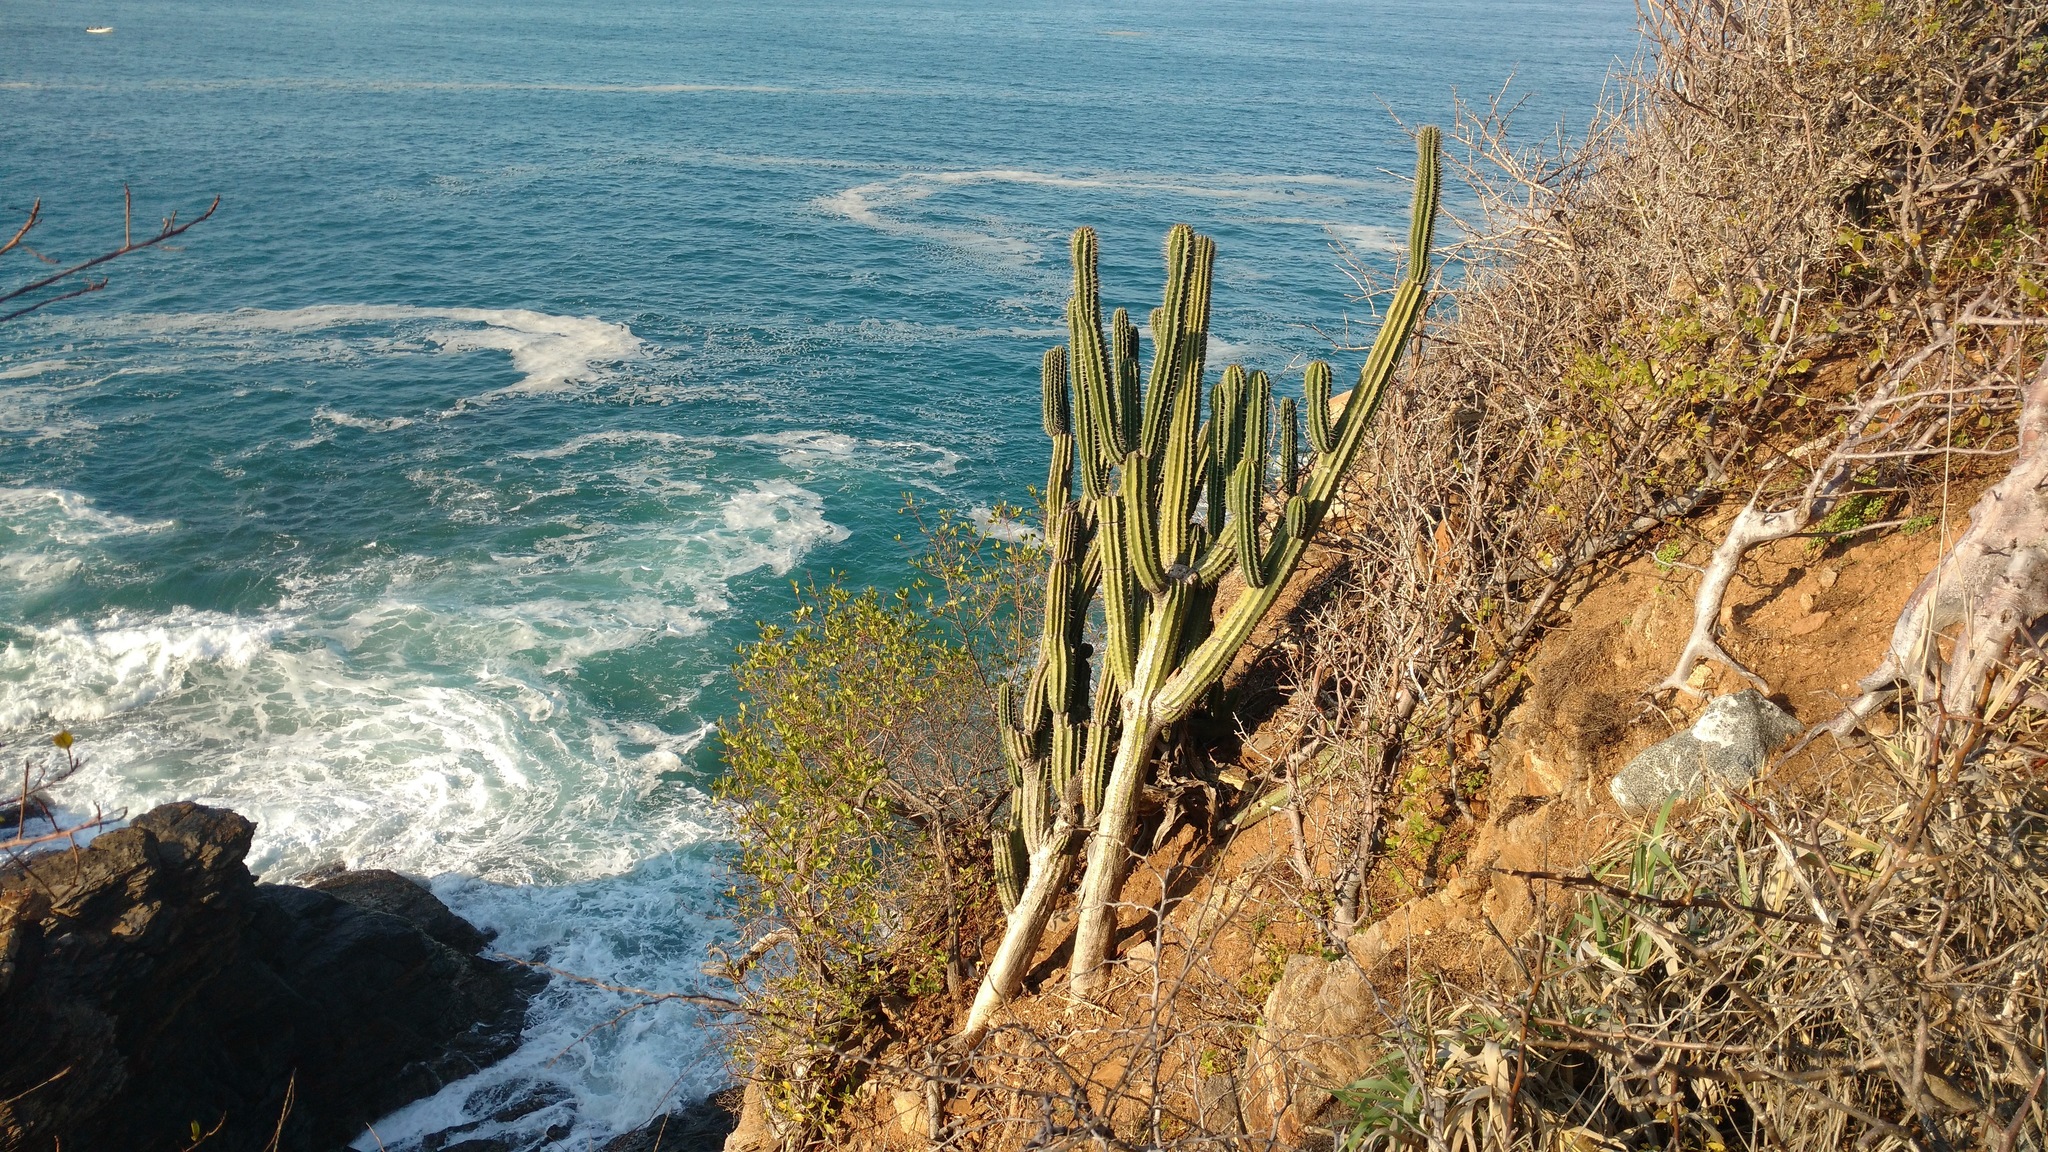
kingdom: Plantae
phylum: Tracheophyta
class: Magnoliopsida
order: Caryophyllales
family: Cactaceae
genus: Pachycereus
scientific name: Pachycereus pecten-aboriginum
